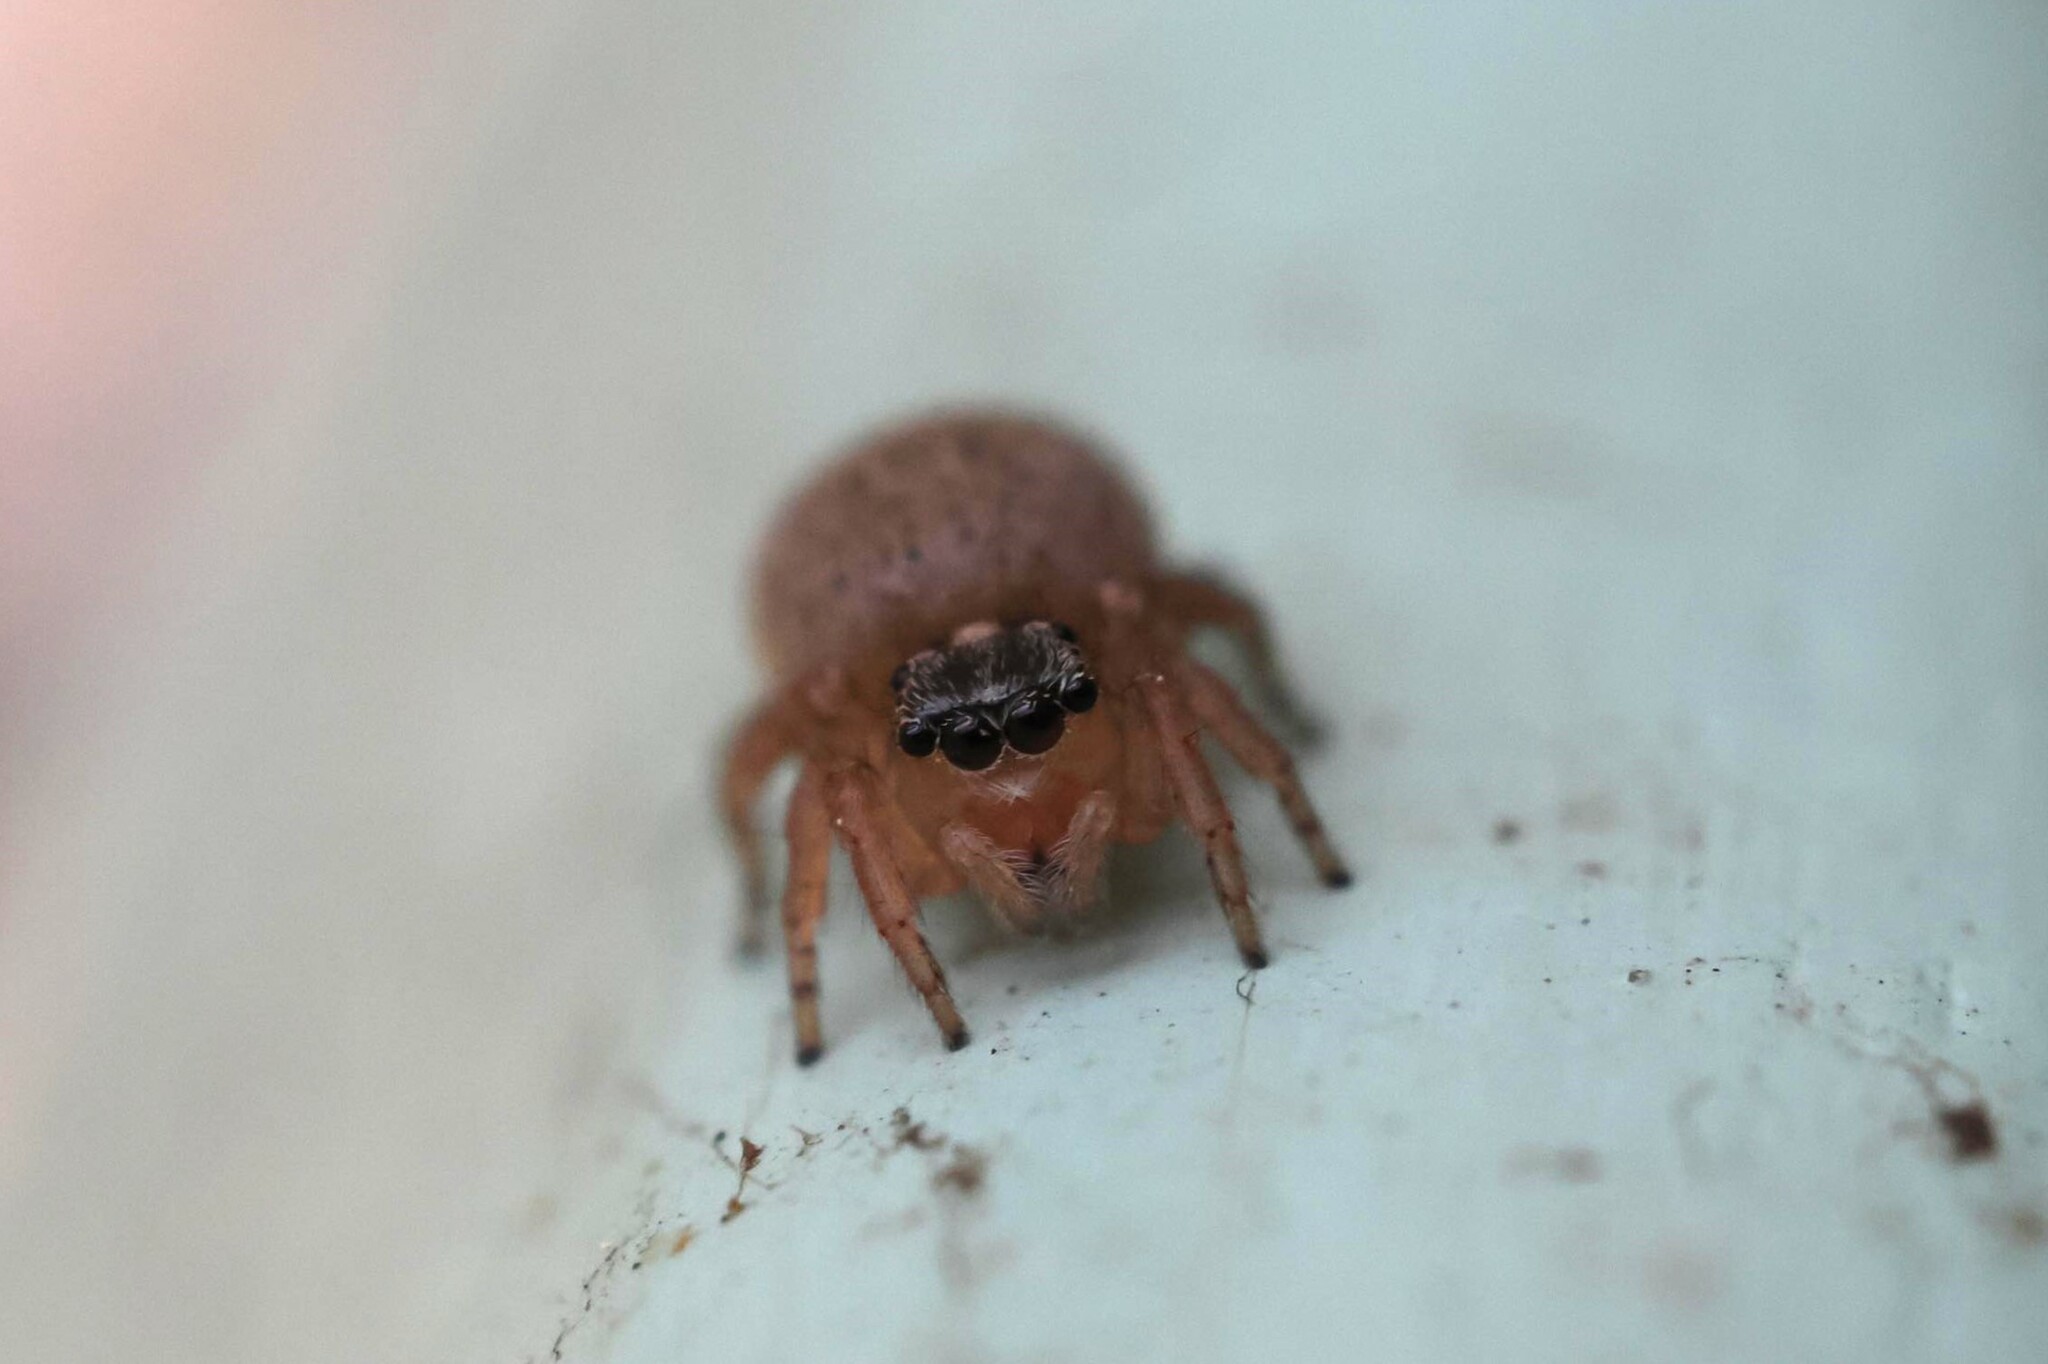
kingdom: Animalia
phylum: Arthropoda
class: Arachnida
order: Araneae
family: Salticidae
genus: Saitis
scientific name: Saitis barbipes
